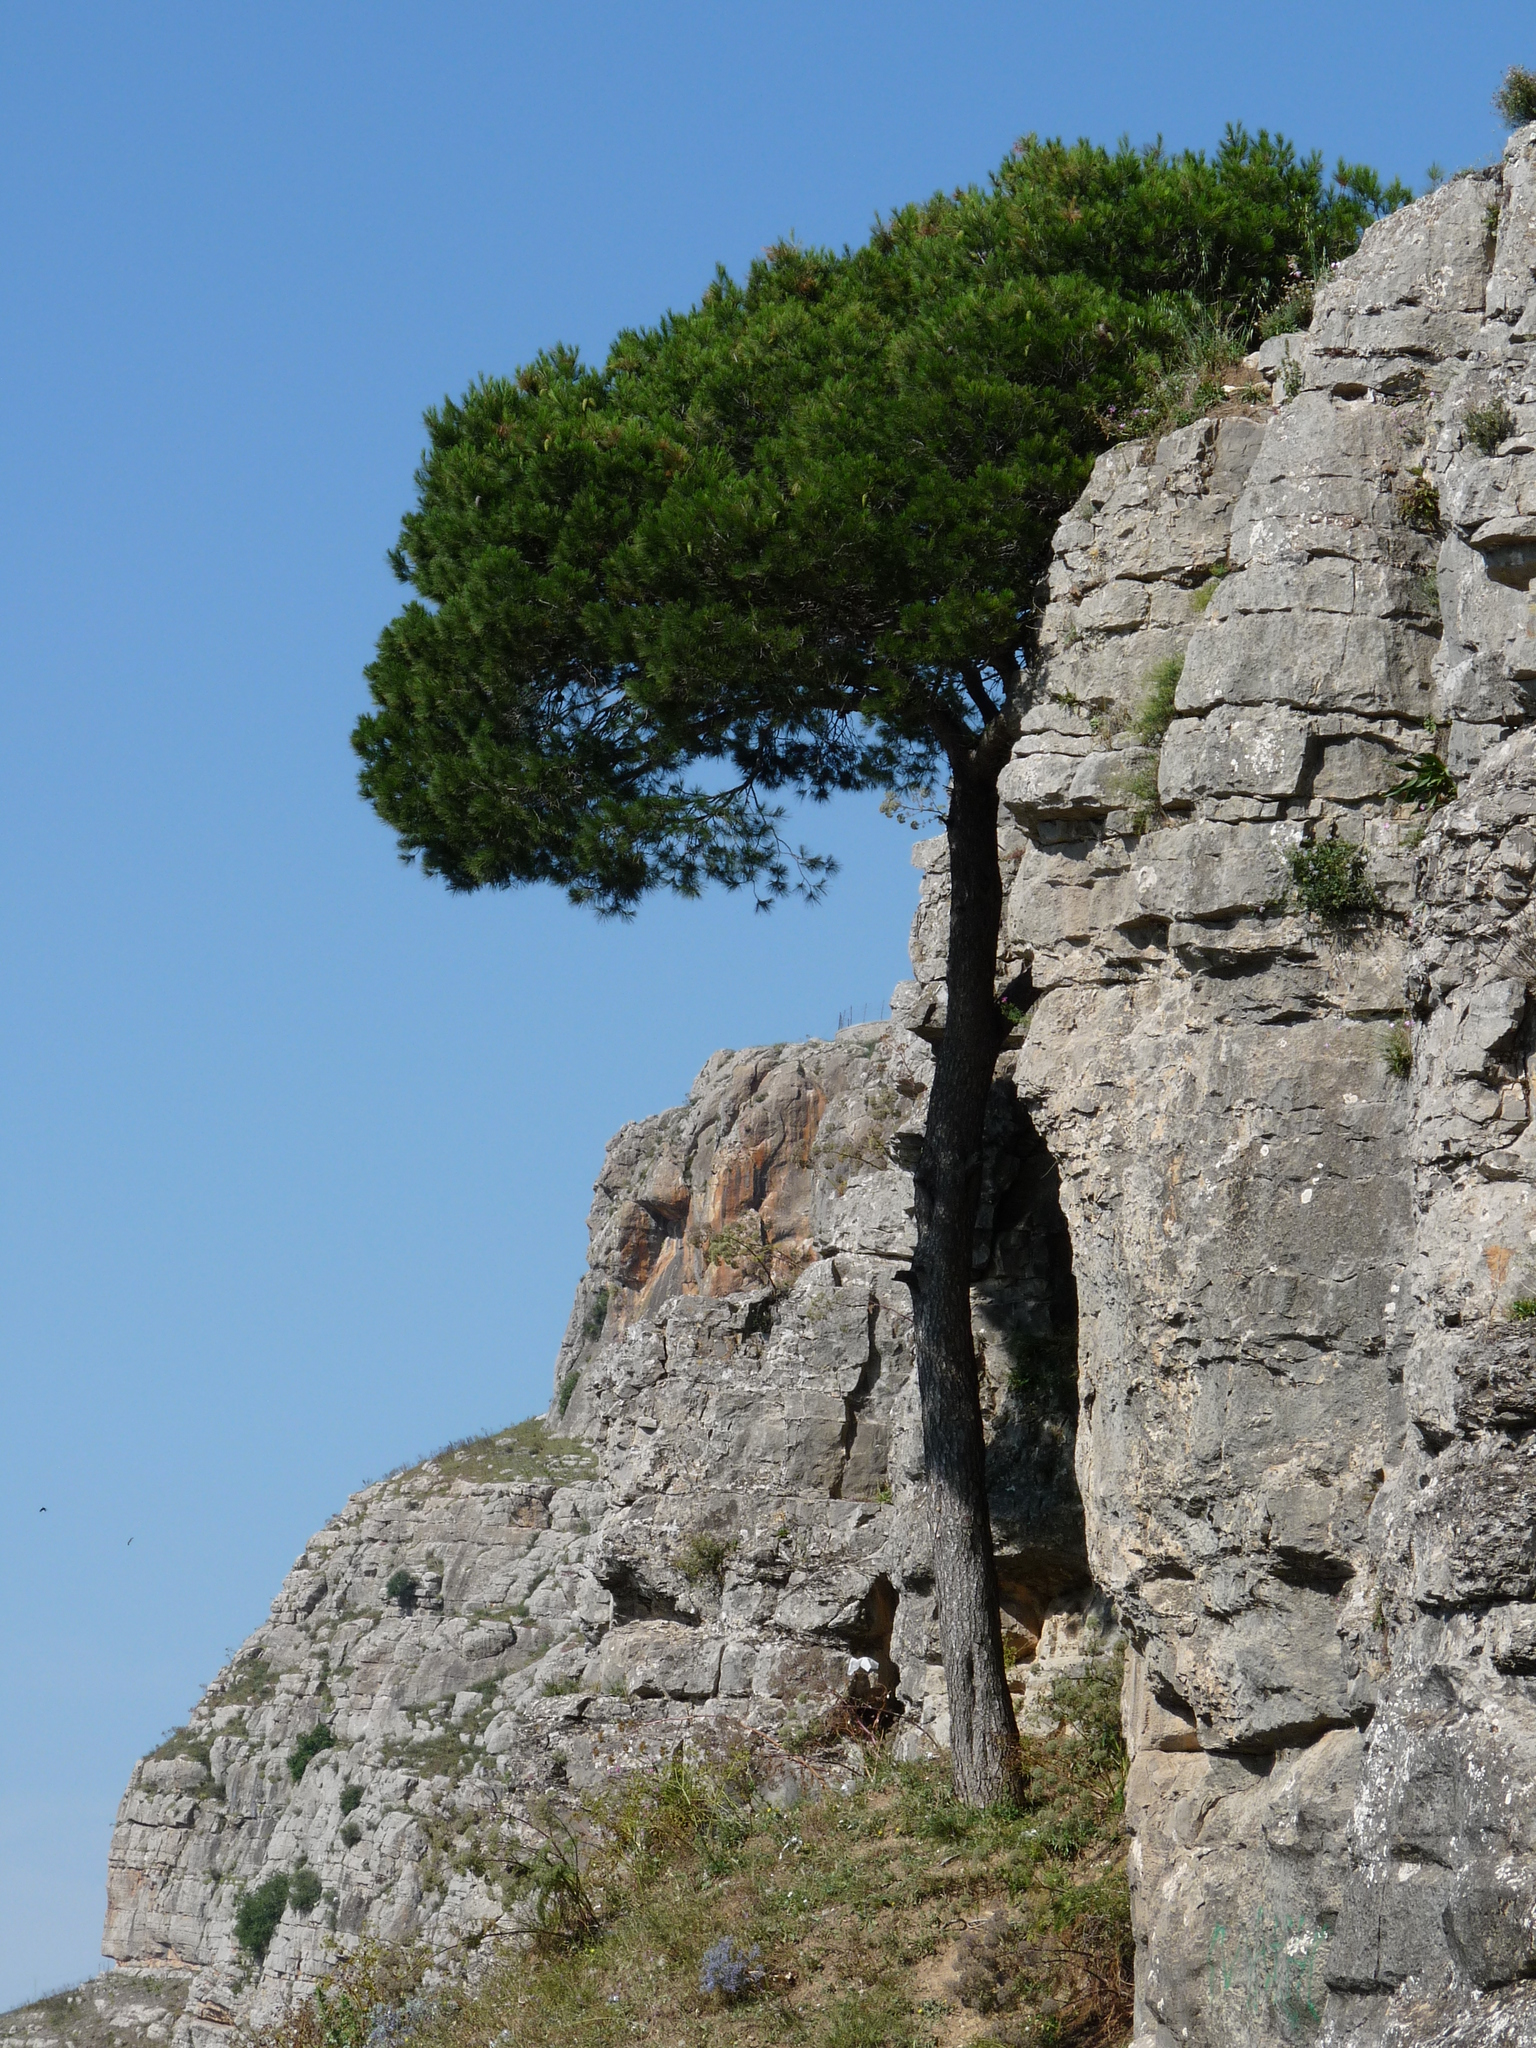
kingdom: Plantae
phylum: Tracheophyta
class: Pinopsida
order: Pinales
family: Pinaceae
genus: Pinus
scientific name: Pinus halepensis
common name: Aleppo pine
